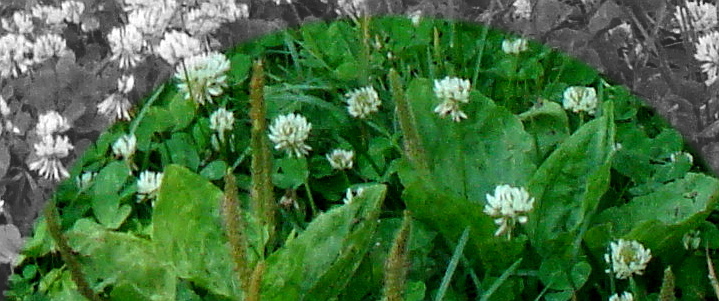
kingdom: Plantae
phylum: Tracheophyta
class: Magnoliopsida
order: Lamiales
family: Plantaginaceae
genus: Plantago
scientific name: Plantago major
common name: Common plantain
